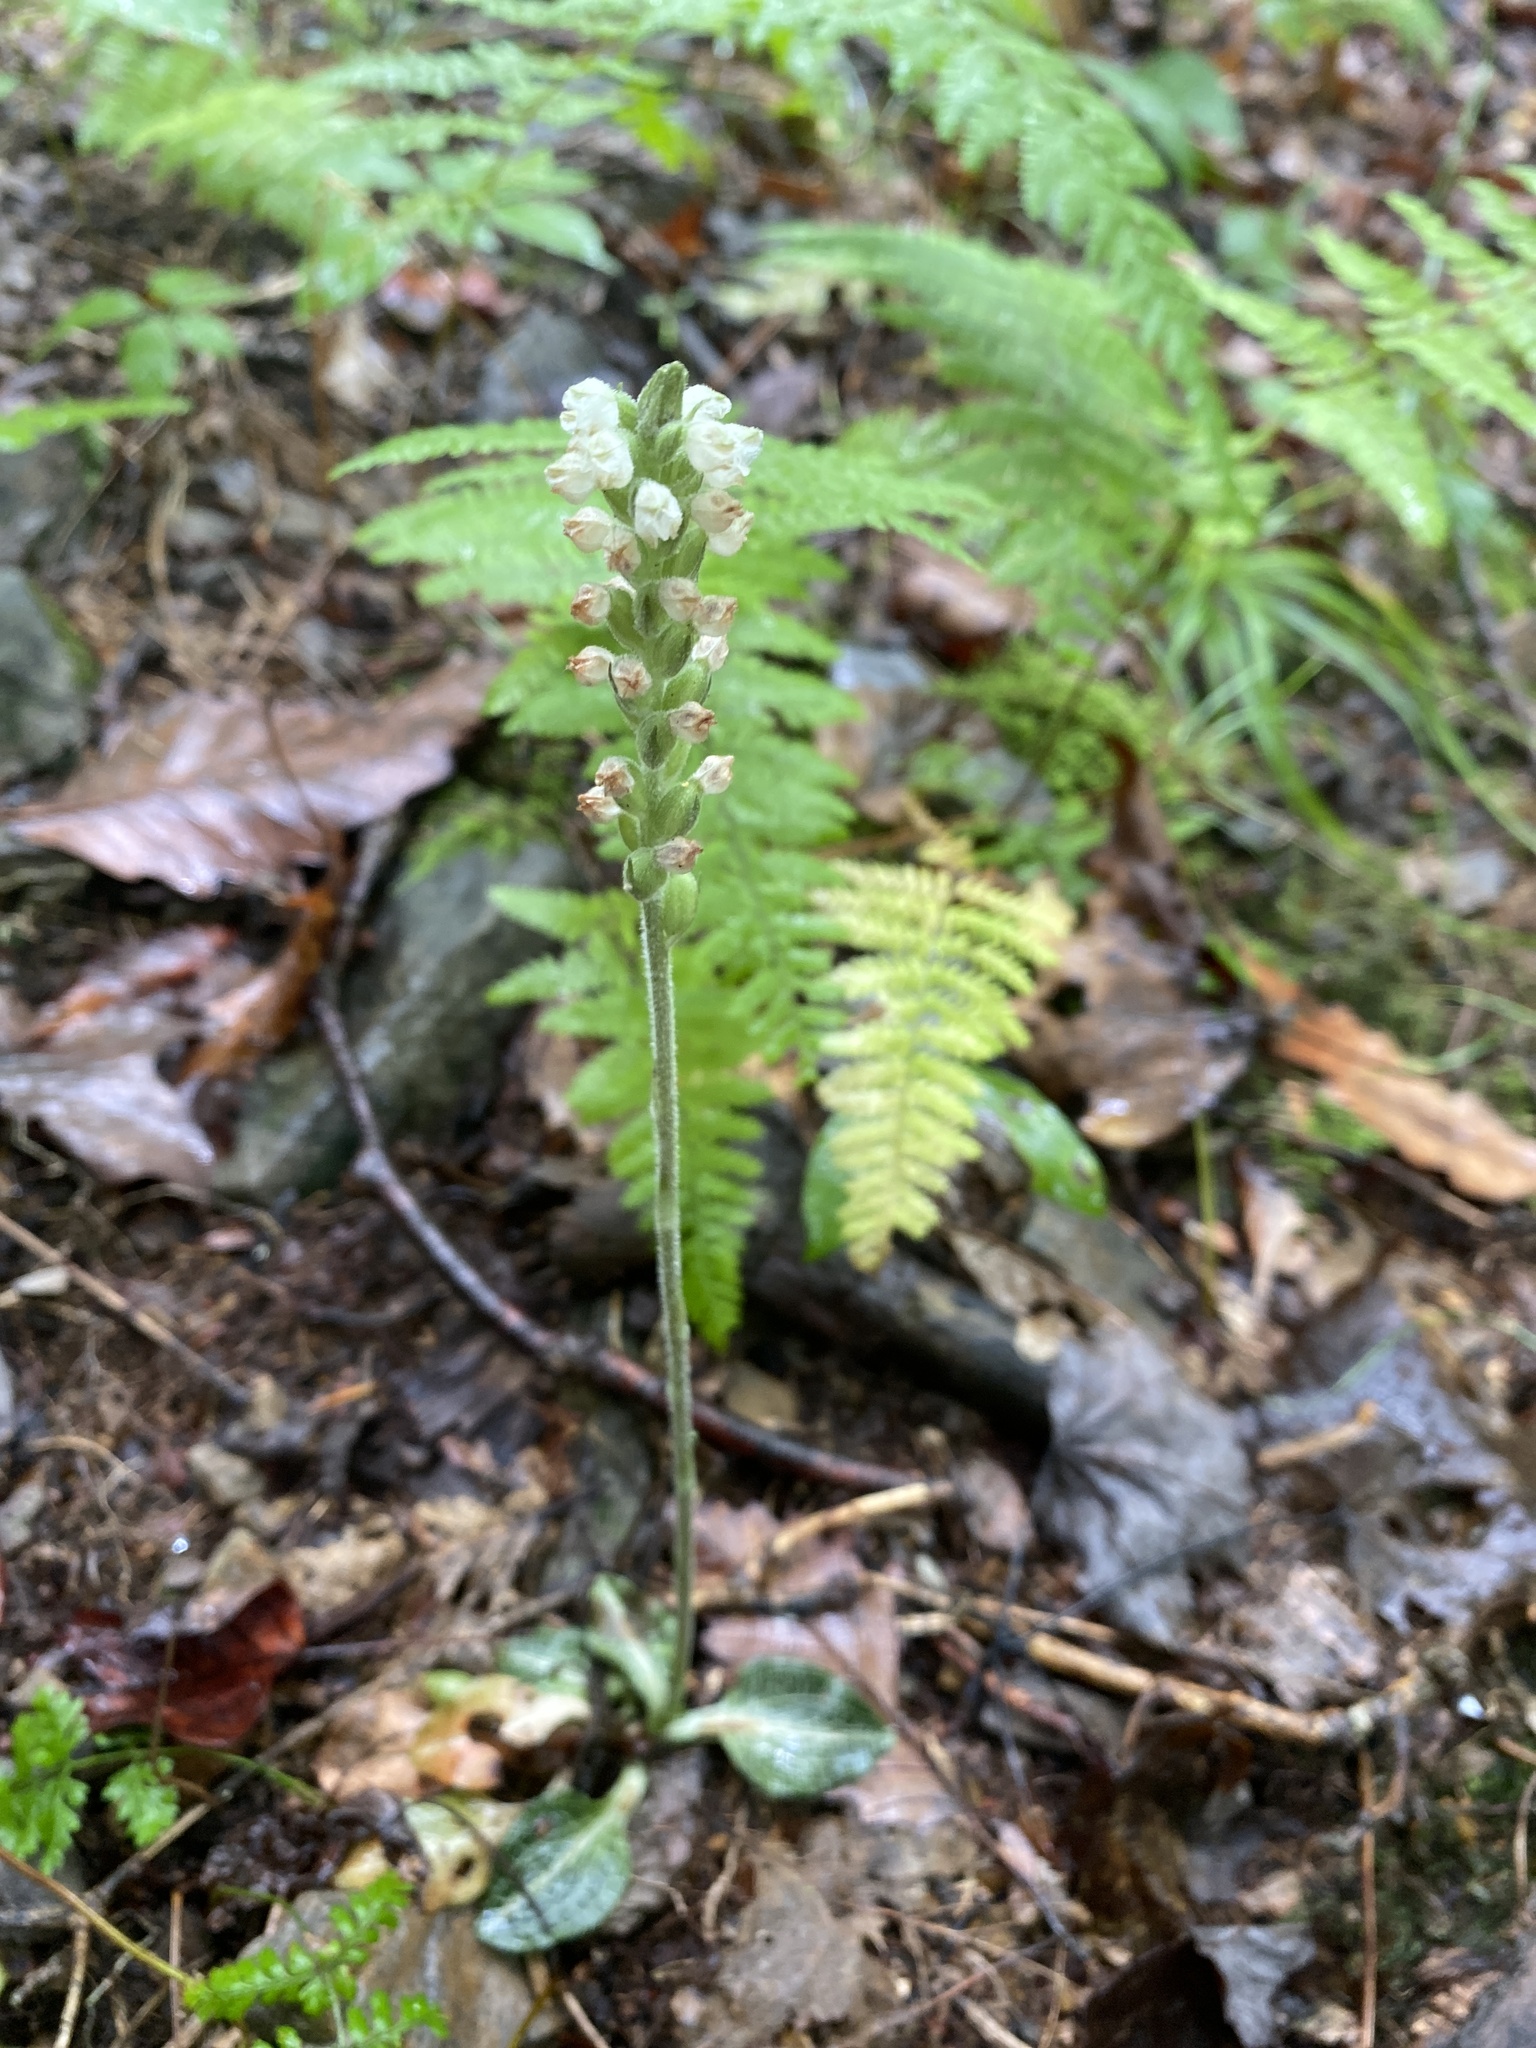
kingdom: Plantae
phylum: Tracheophyta
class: Liliopsida
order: Asparagales
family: Orchidaceae
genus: Goodyera
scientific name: Goodyera pubescens
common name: Downy rattlesnake-plantain
